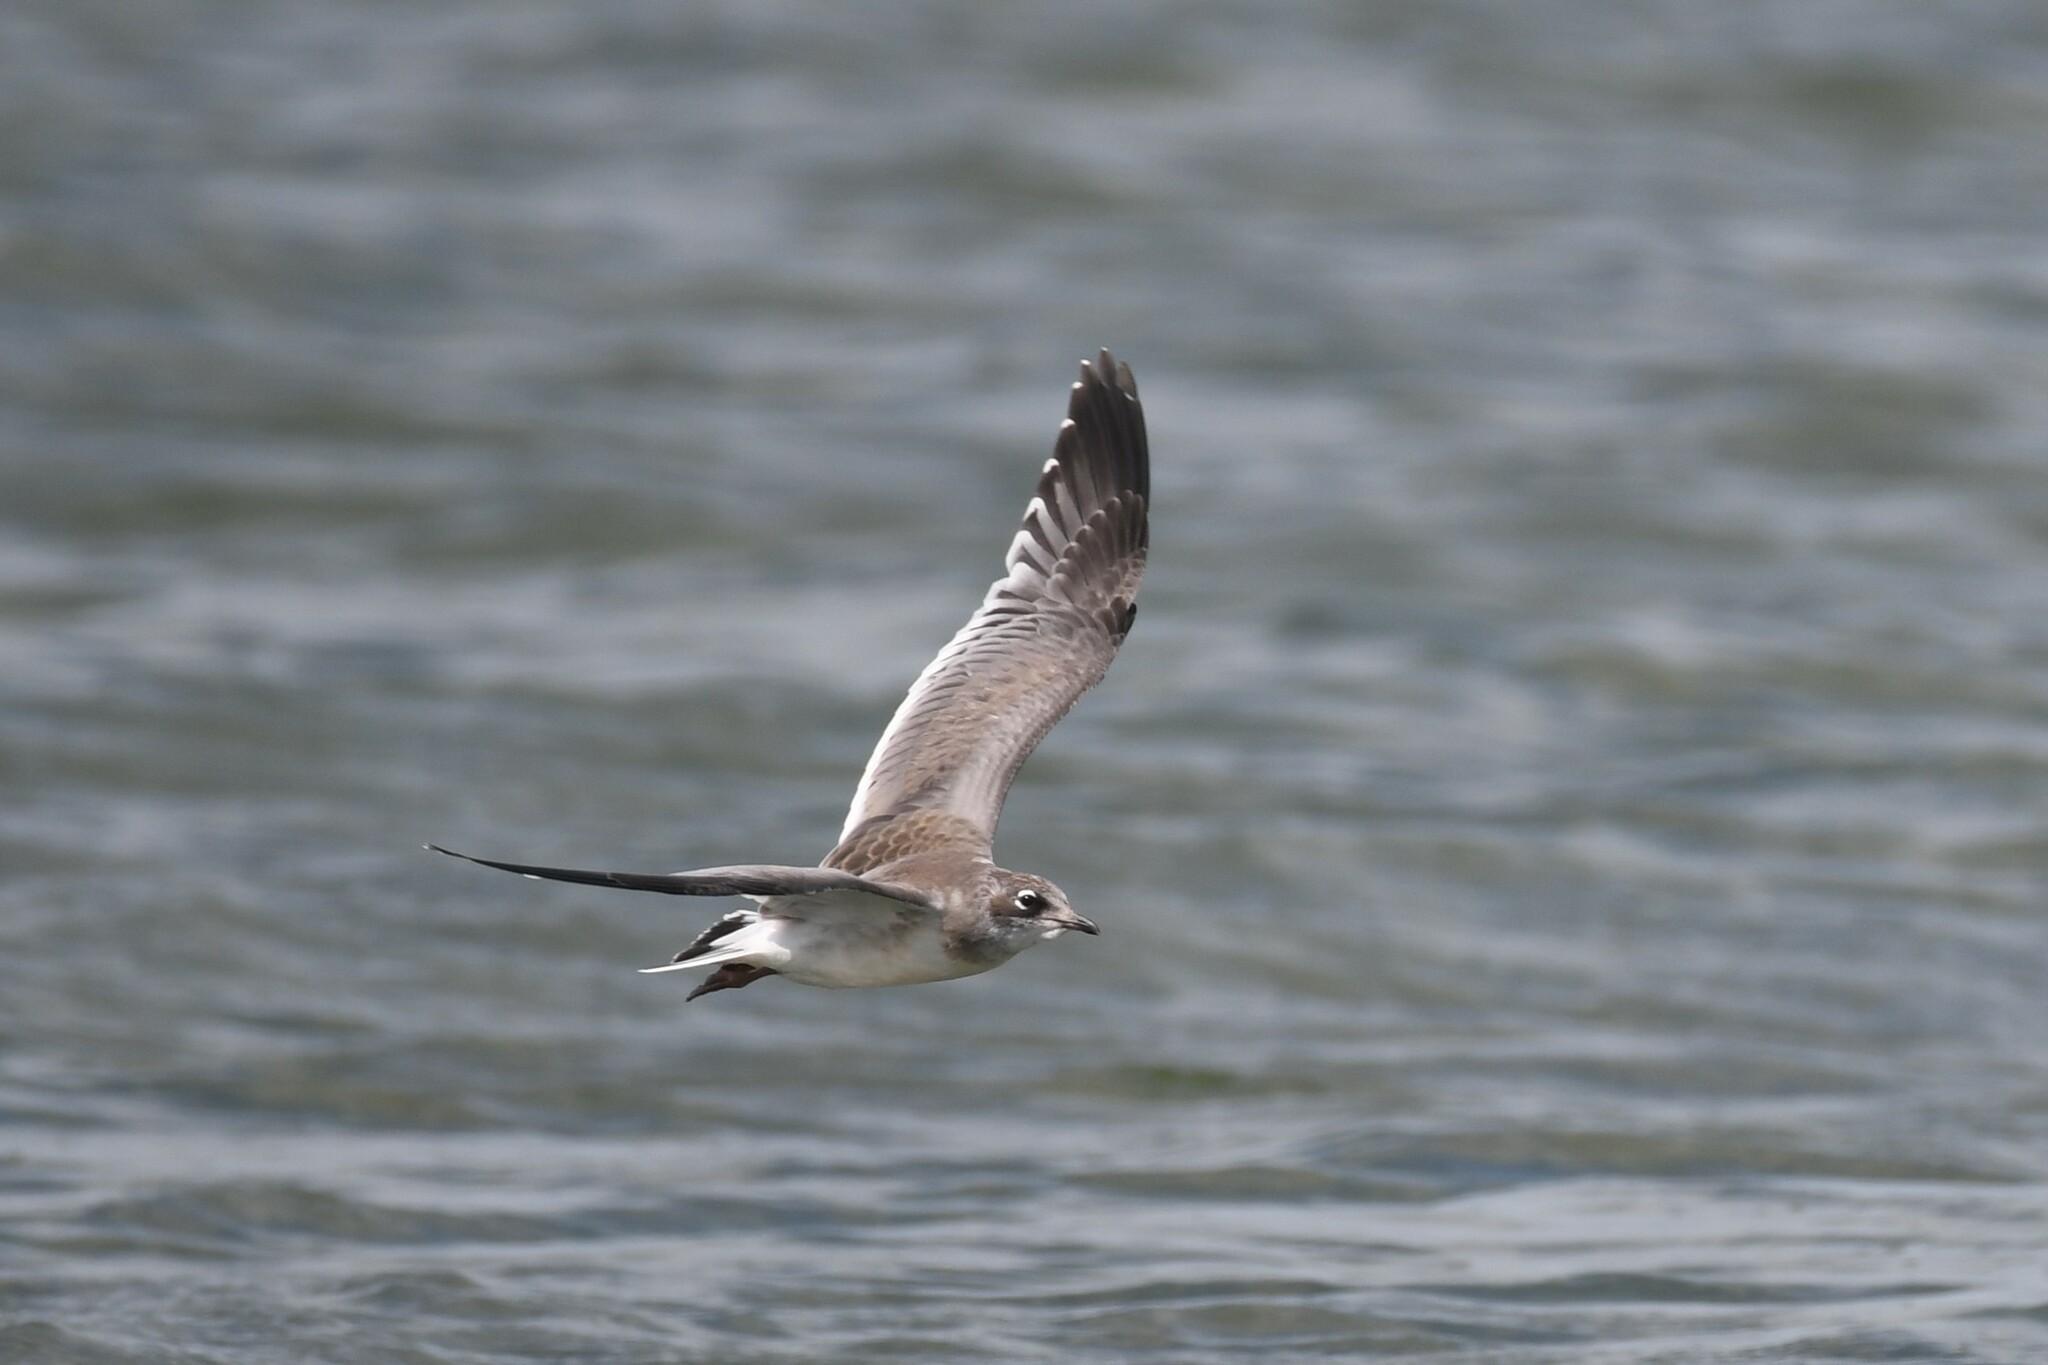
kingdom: Animalia
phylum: Chordata
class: Aves
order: Charadriiformes
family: Laridae
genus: Leucophaeus
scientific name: Leucophaeus pipixcan
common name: Franklin's gull
